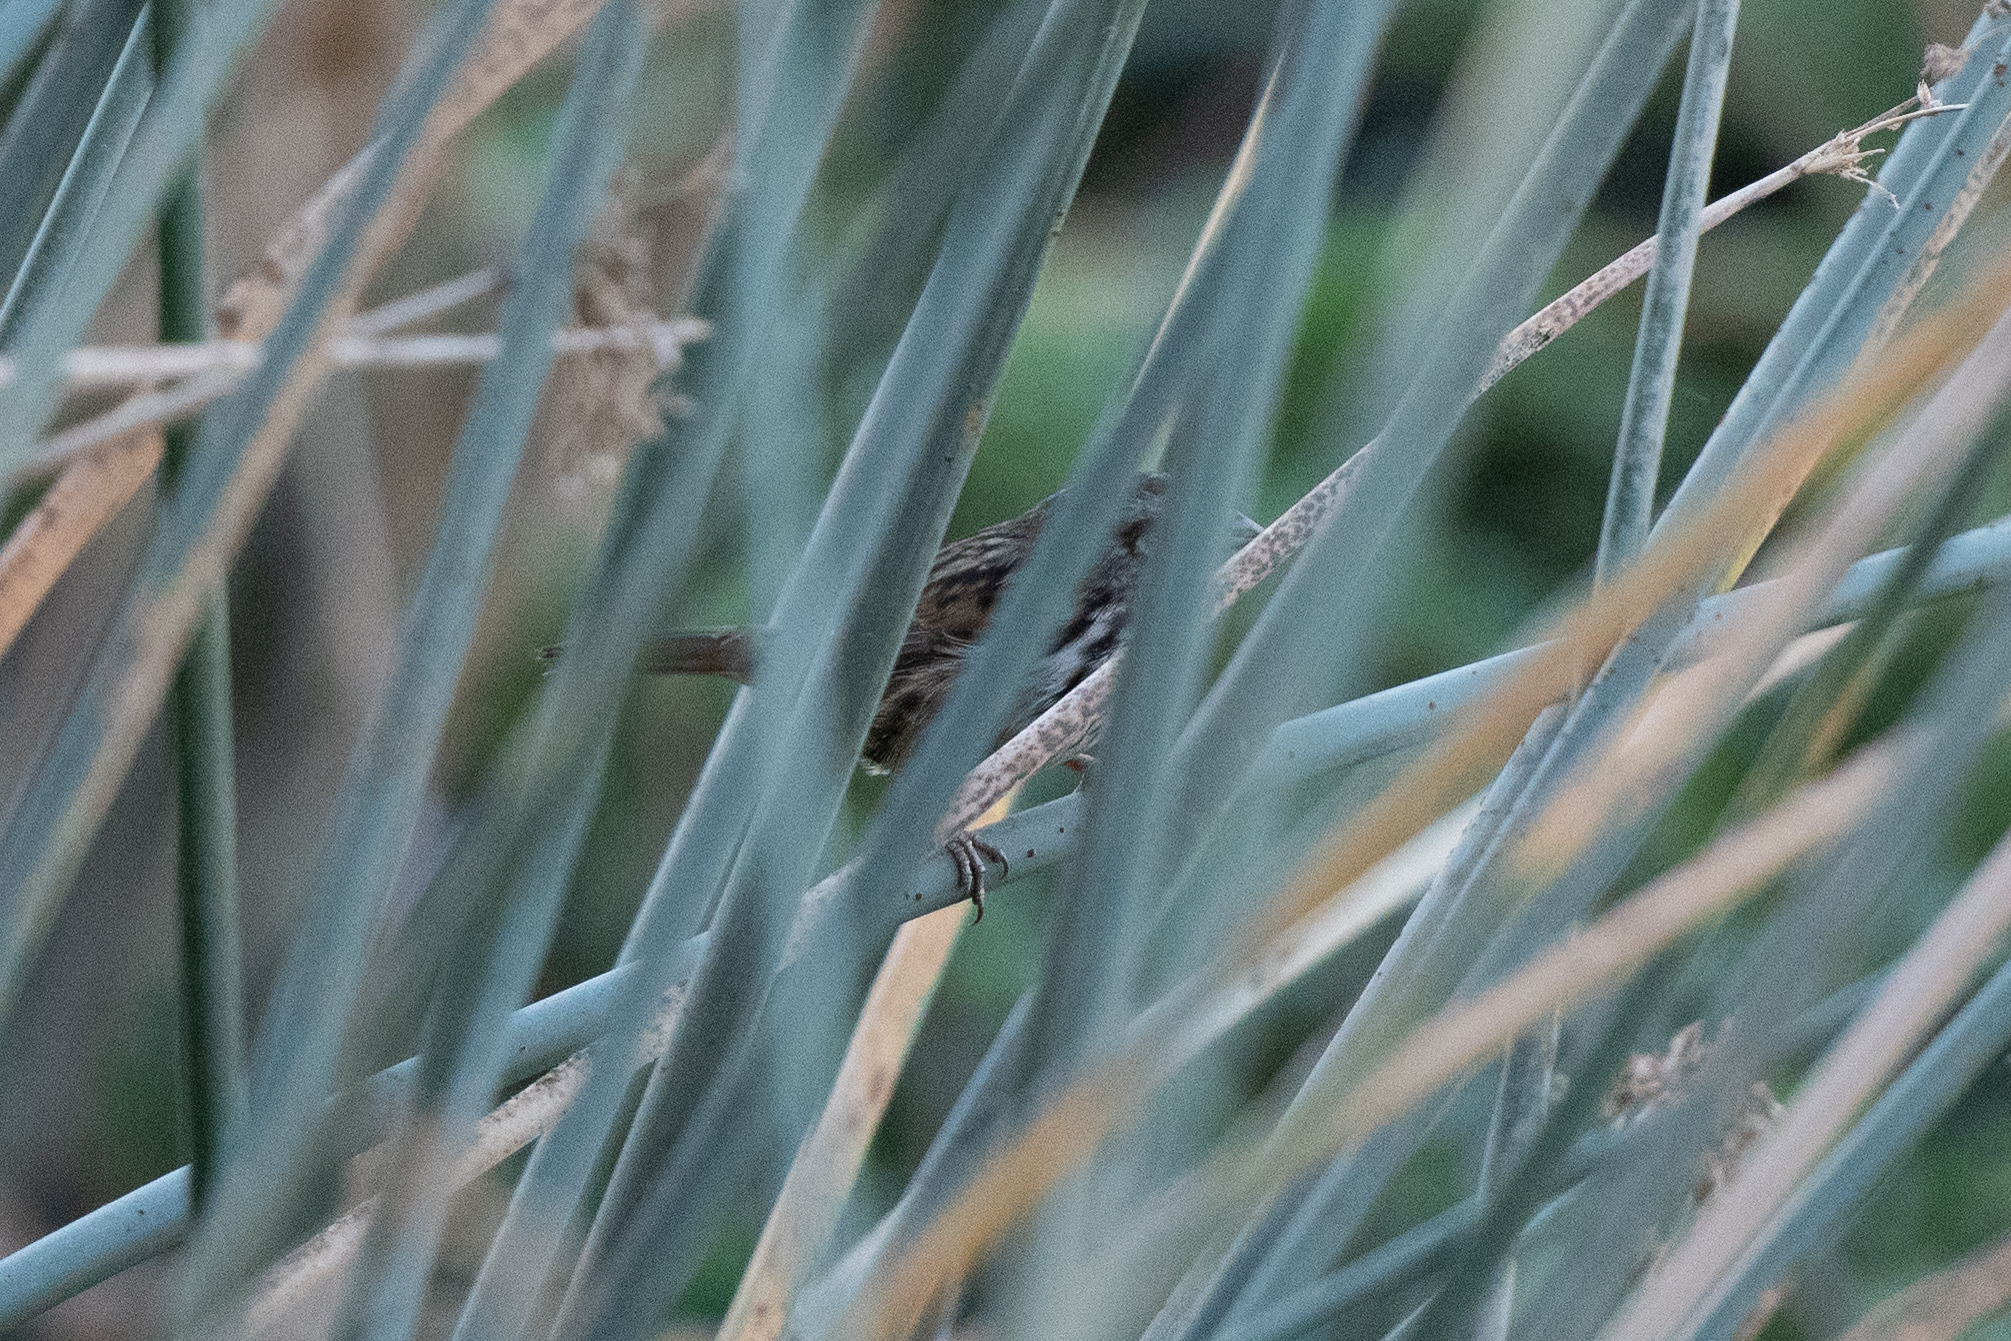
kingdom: Animalia
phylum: Chordata
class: Aves
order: Passeriformes
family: Passerellidae
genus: Melospiza
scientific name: Melospiza melodia
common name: Song sparrow
